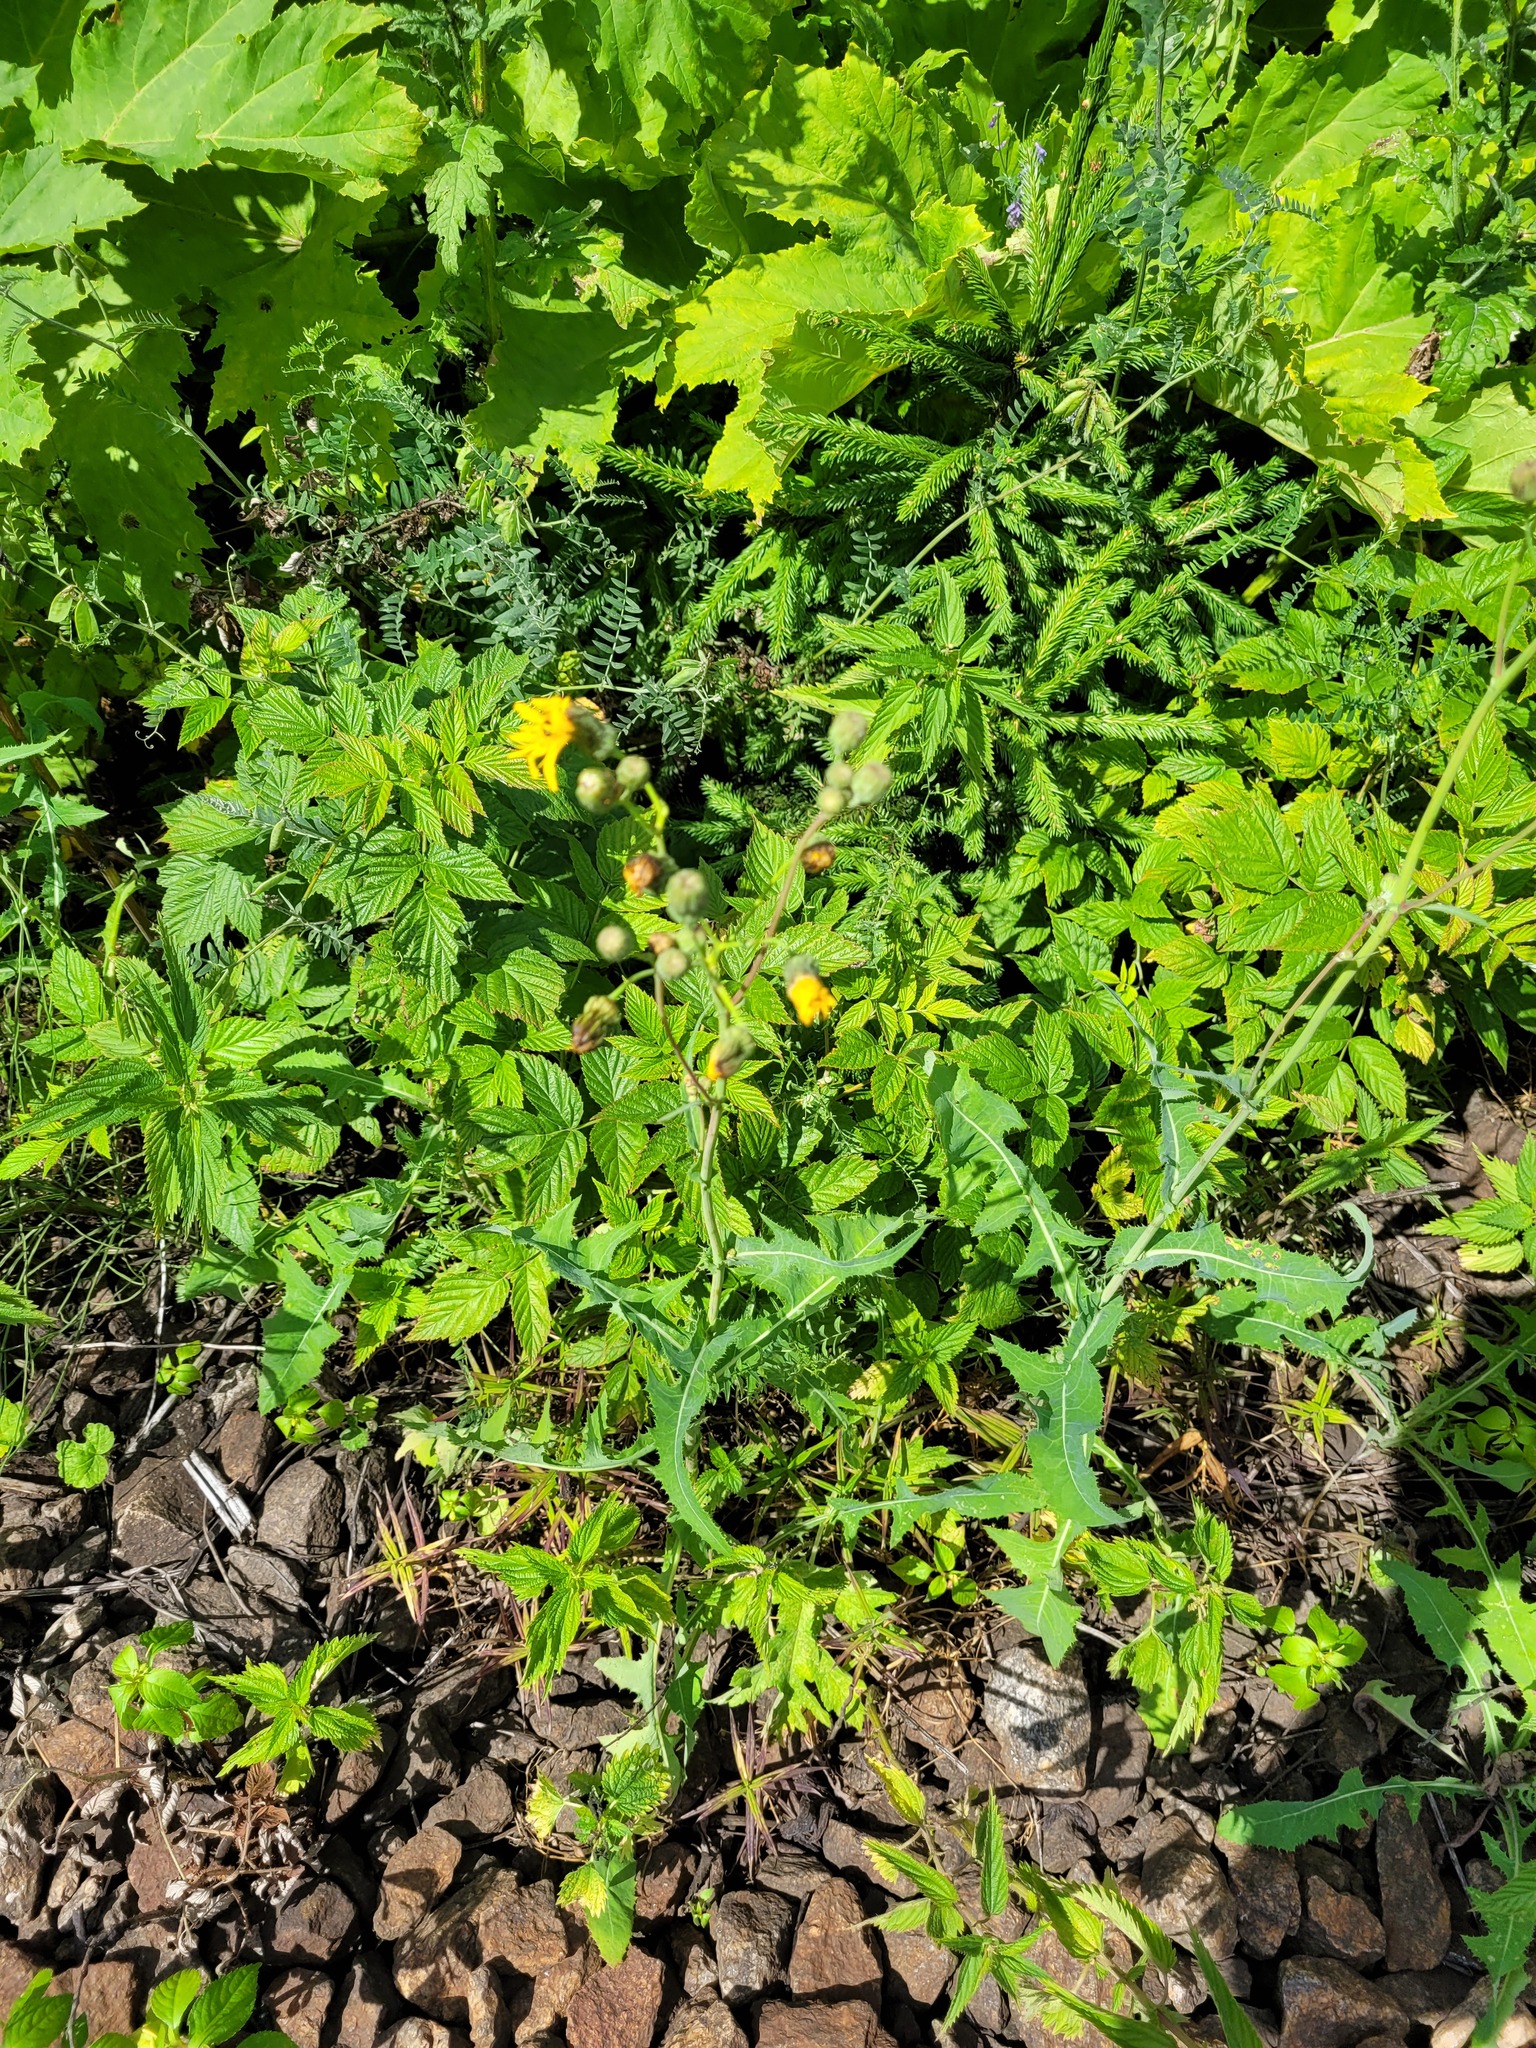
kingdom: Plantae
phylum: Tracheophyta
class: Magnoliopsida
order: Asterales
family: Asteraceae
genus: Sonchus
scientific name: Sonchus arvensis
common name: Perennial sow-thistle
